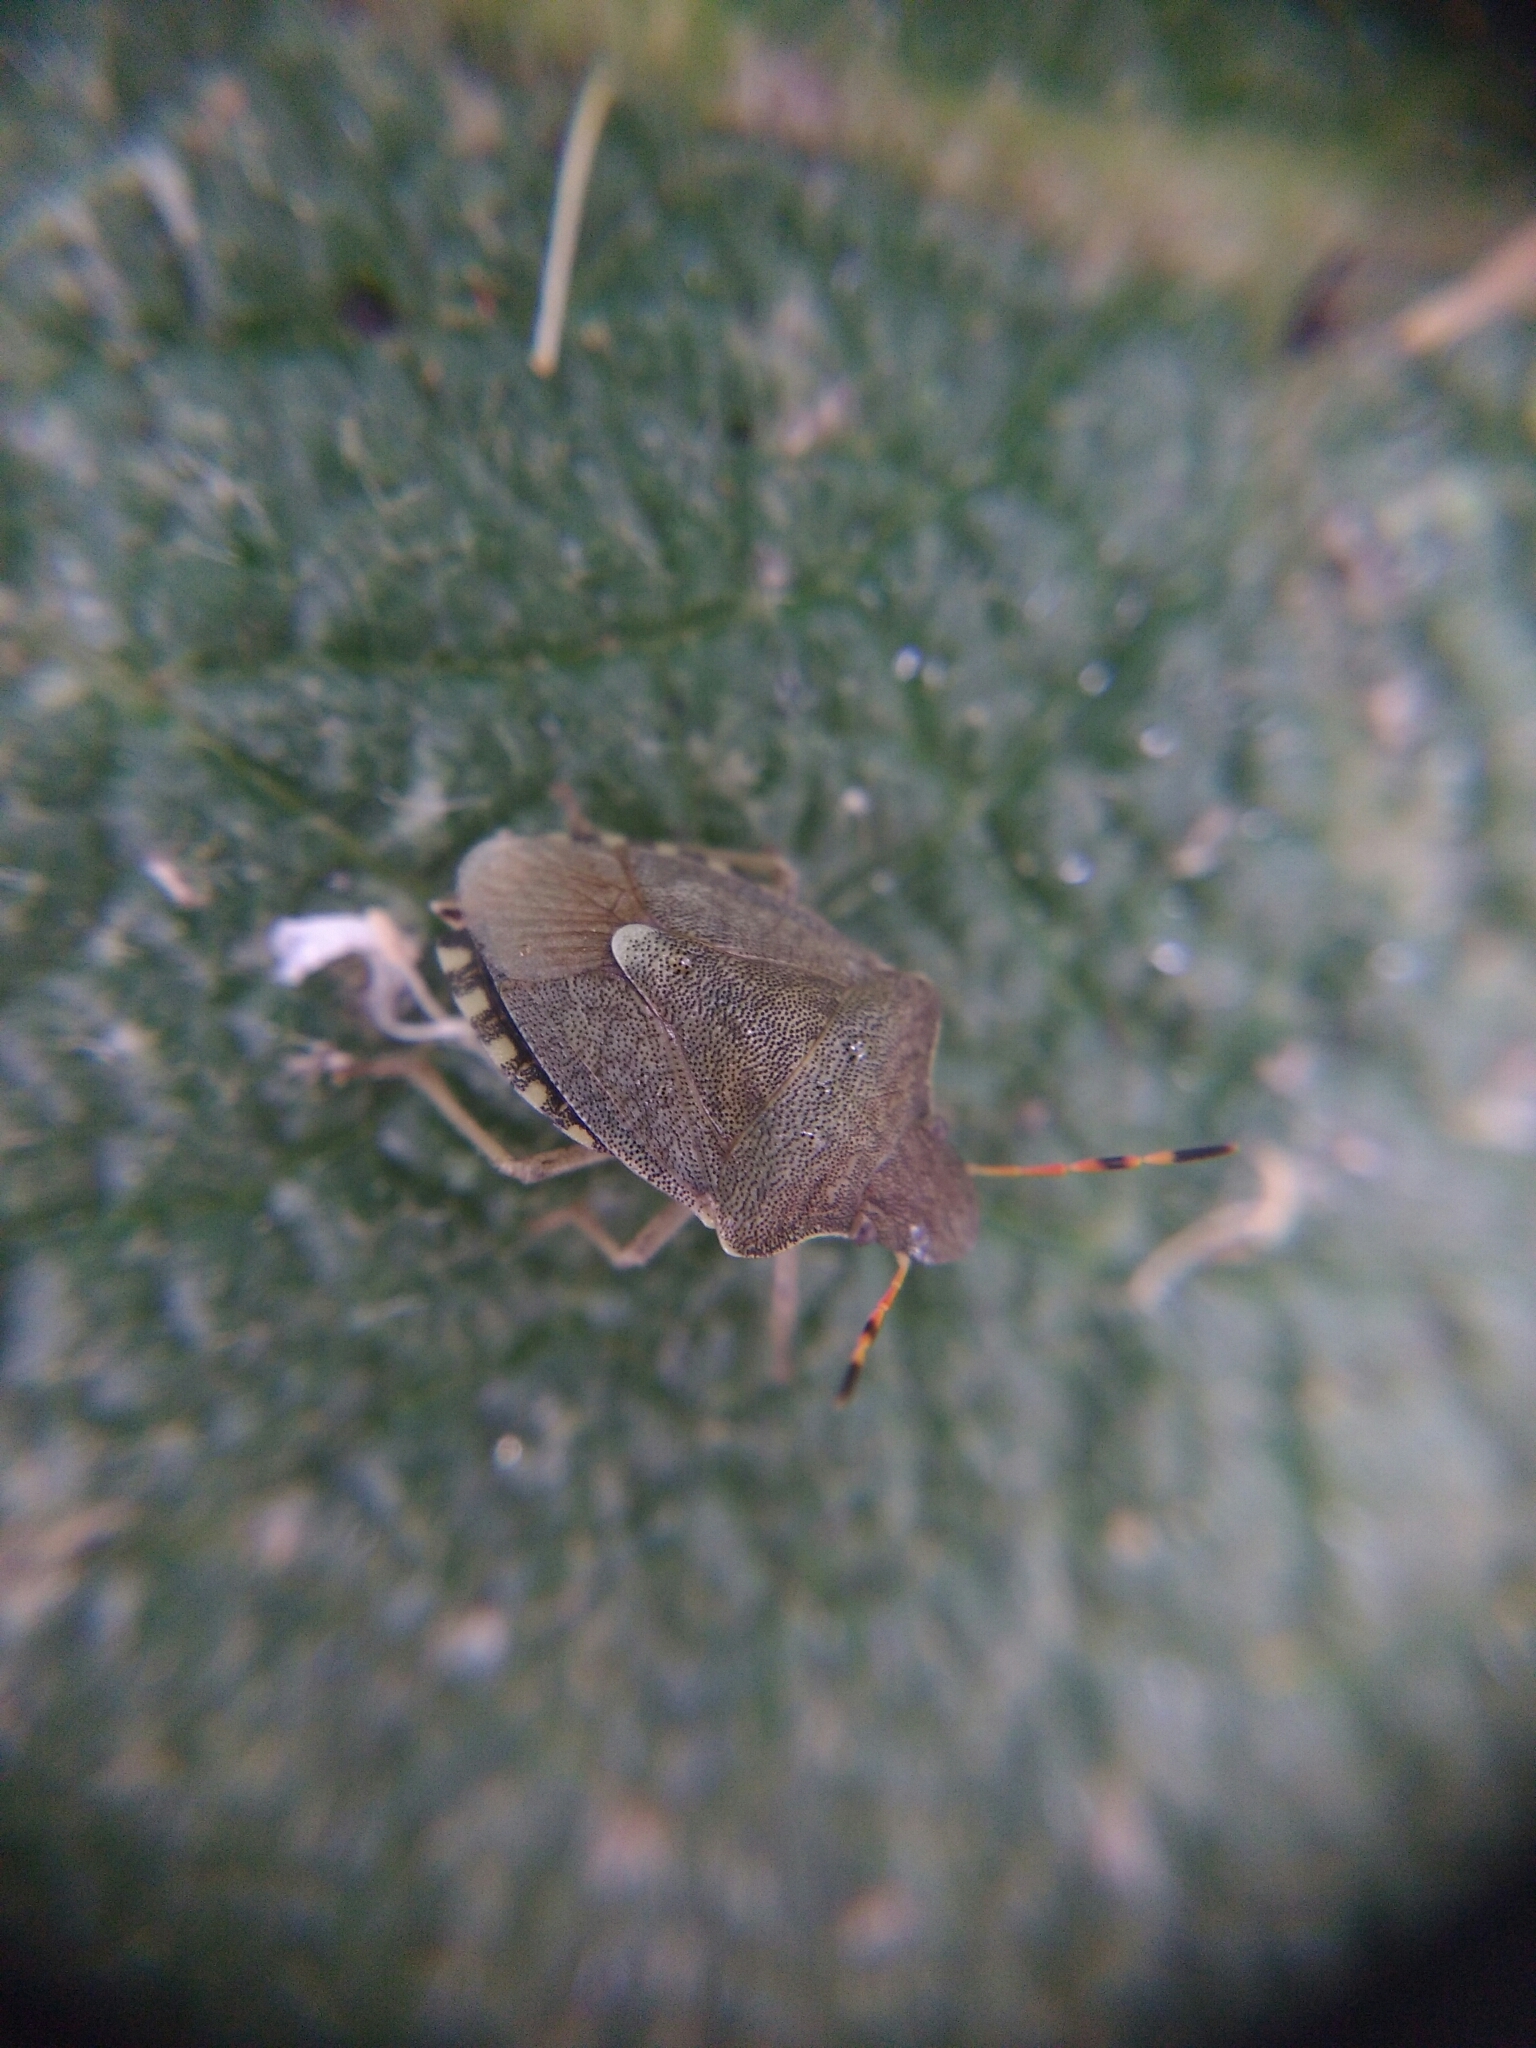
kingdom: Animalia
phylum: Arthropoda
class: Insecta
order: Hemiptera
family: Pentatomidae
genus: Holcostethus
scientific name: Holcostethus strictus
